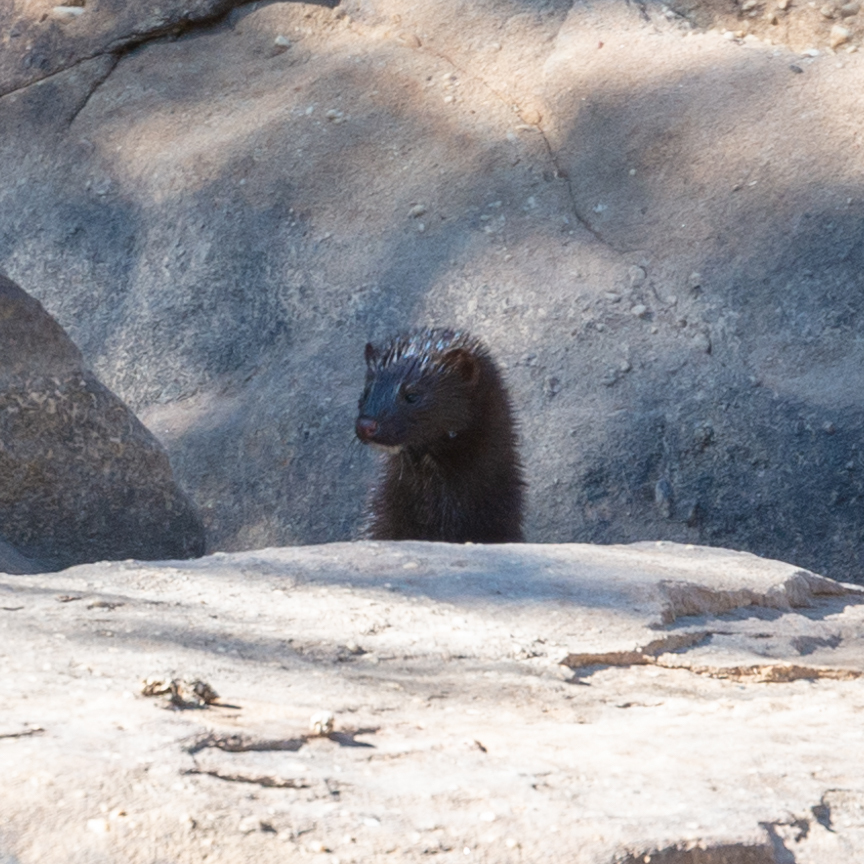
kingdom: Animalia
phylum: Chordata
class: Mammalia
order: Carnivora
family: Mustelidae
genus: Mustela
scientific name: Mustela
